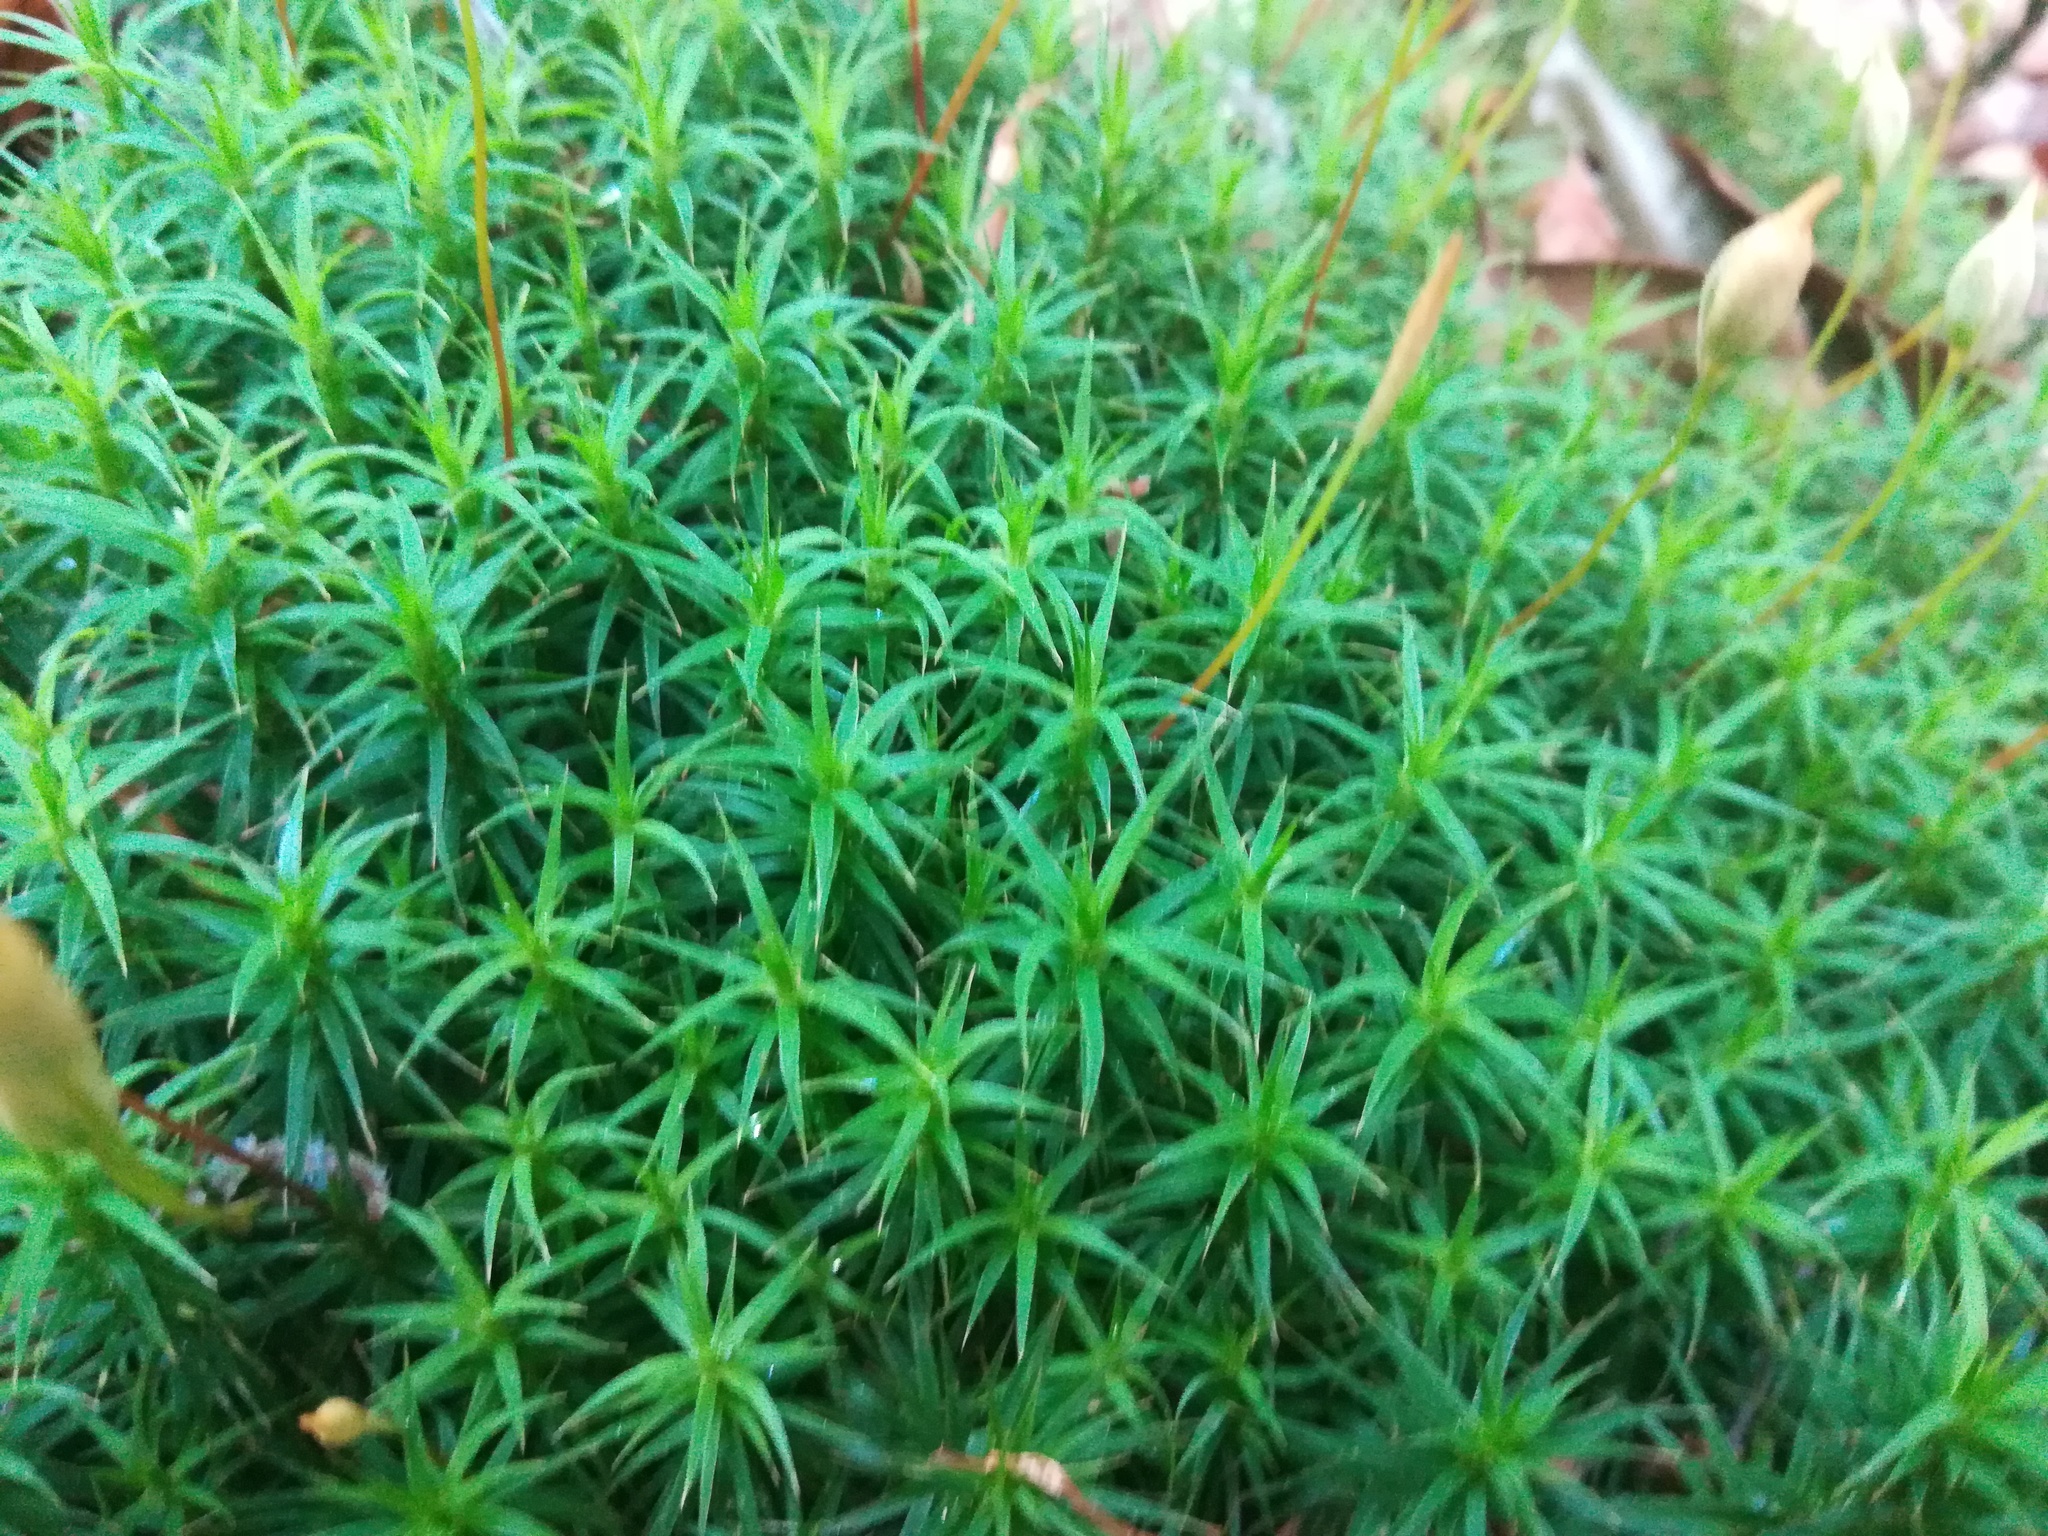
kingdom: Plantae
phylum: Bryophyta
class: Polytrichopsida
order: Polytrichales
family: Polytrichaceae
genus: Polytrichum
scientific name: Polytrichum formosum
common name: Bank haircap moss
